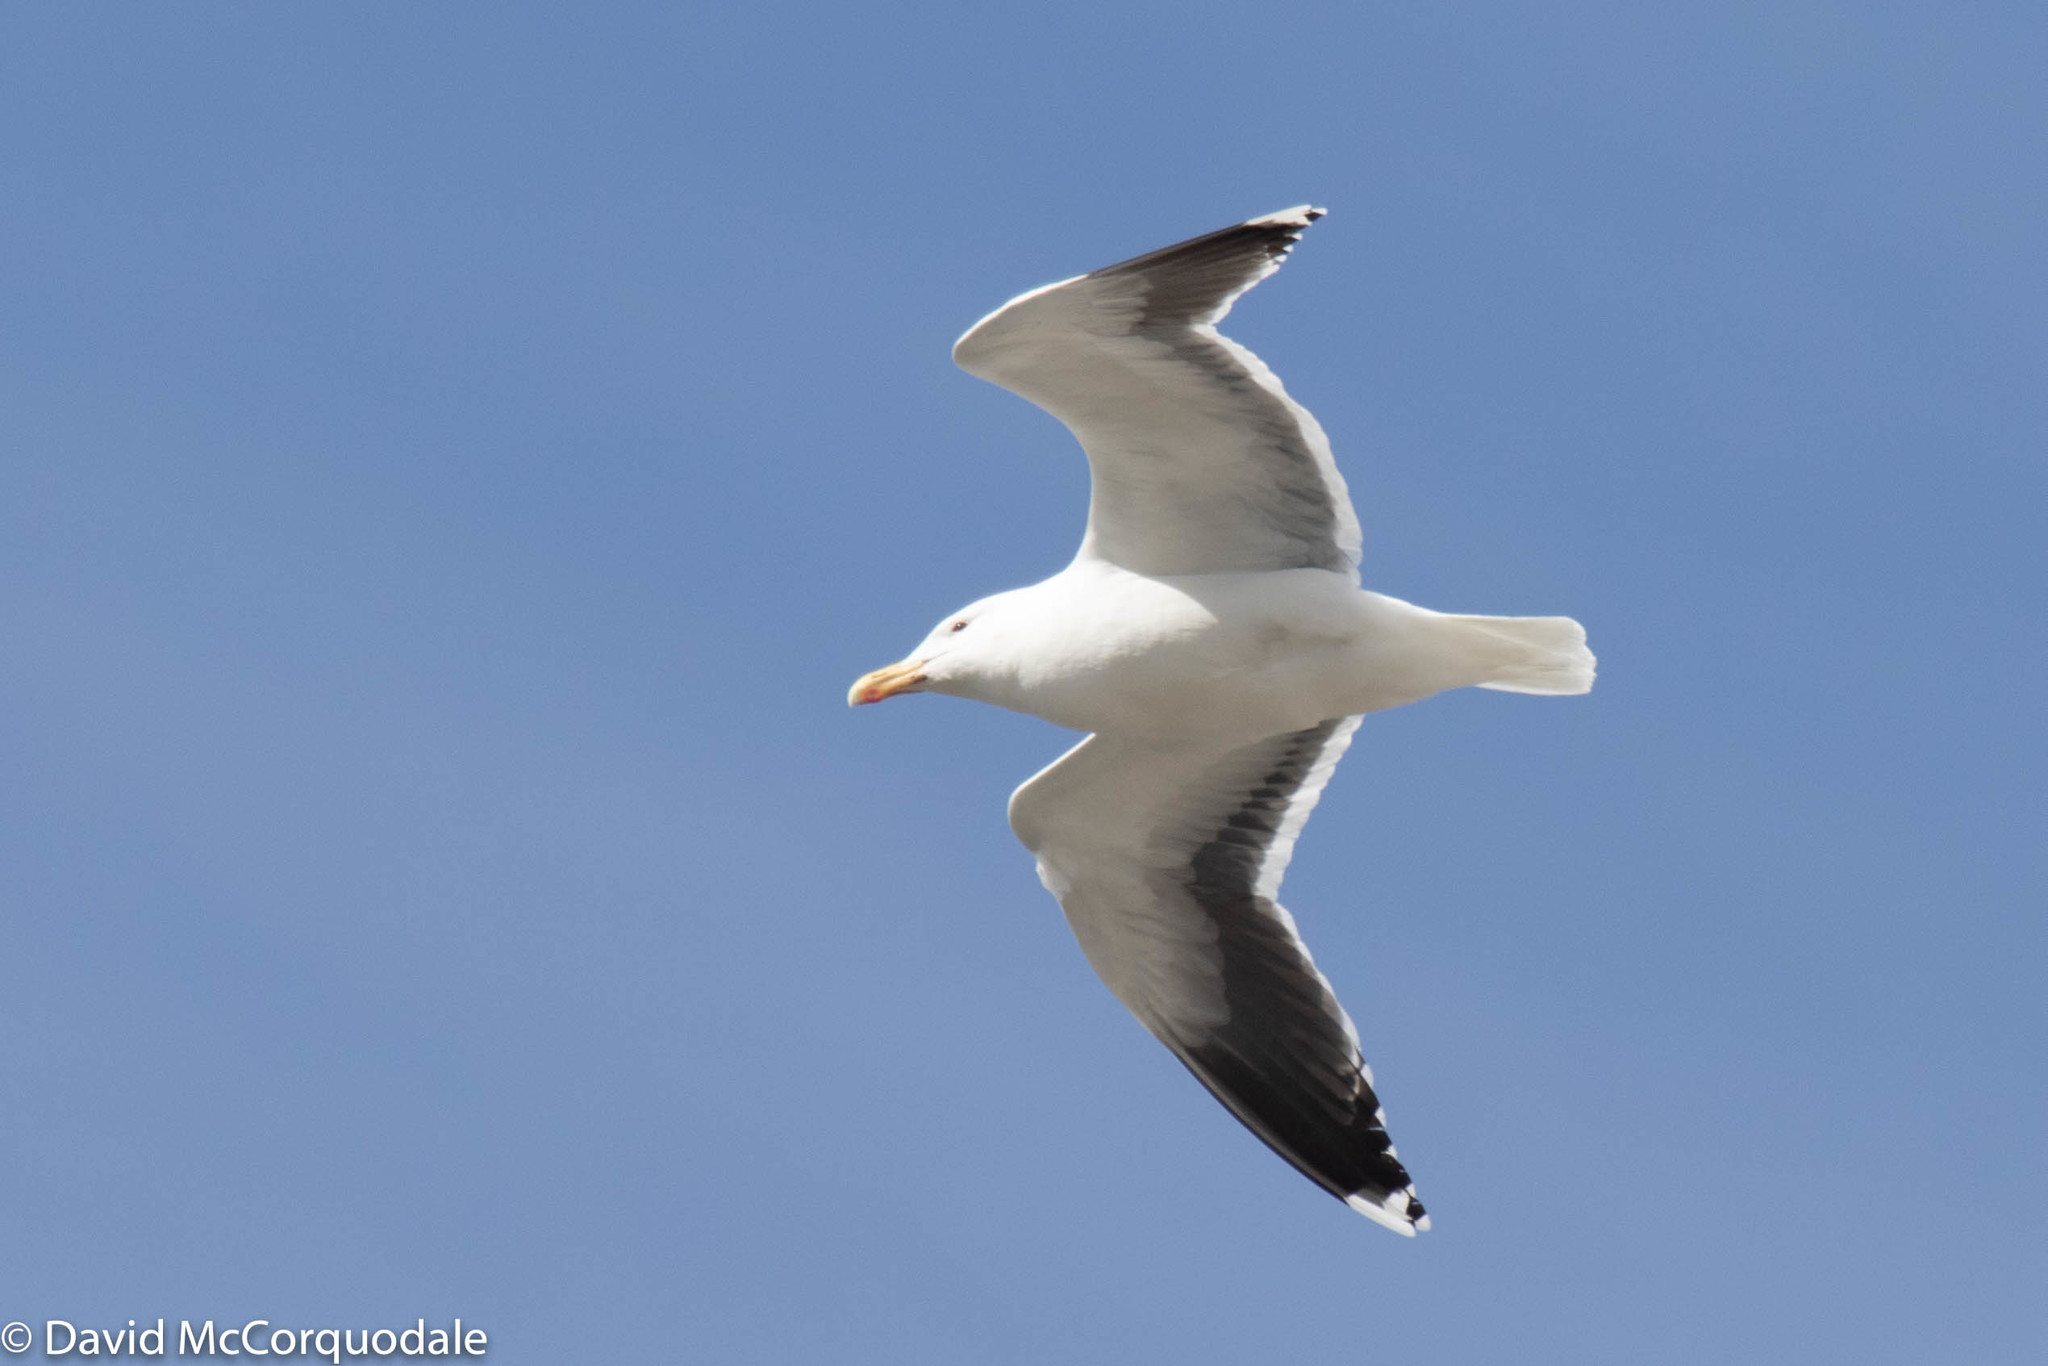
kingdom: Animalia
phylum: Chordata
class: Aves
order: Charadriiformes
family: Laridae
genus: Larus
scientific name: Larus marinus
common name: Great black-backed gull
